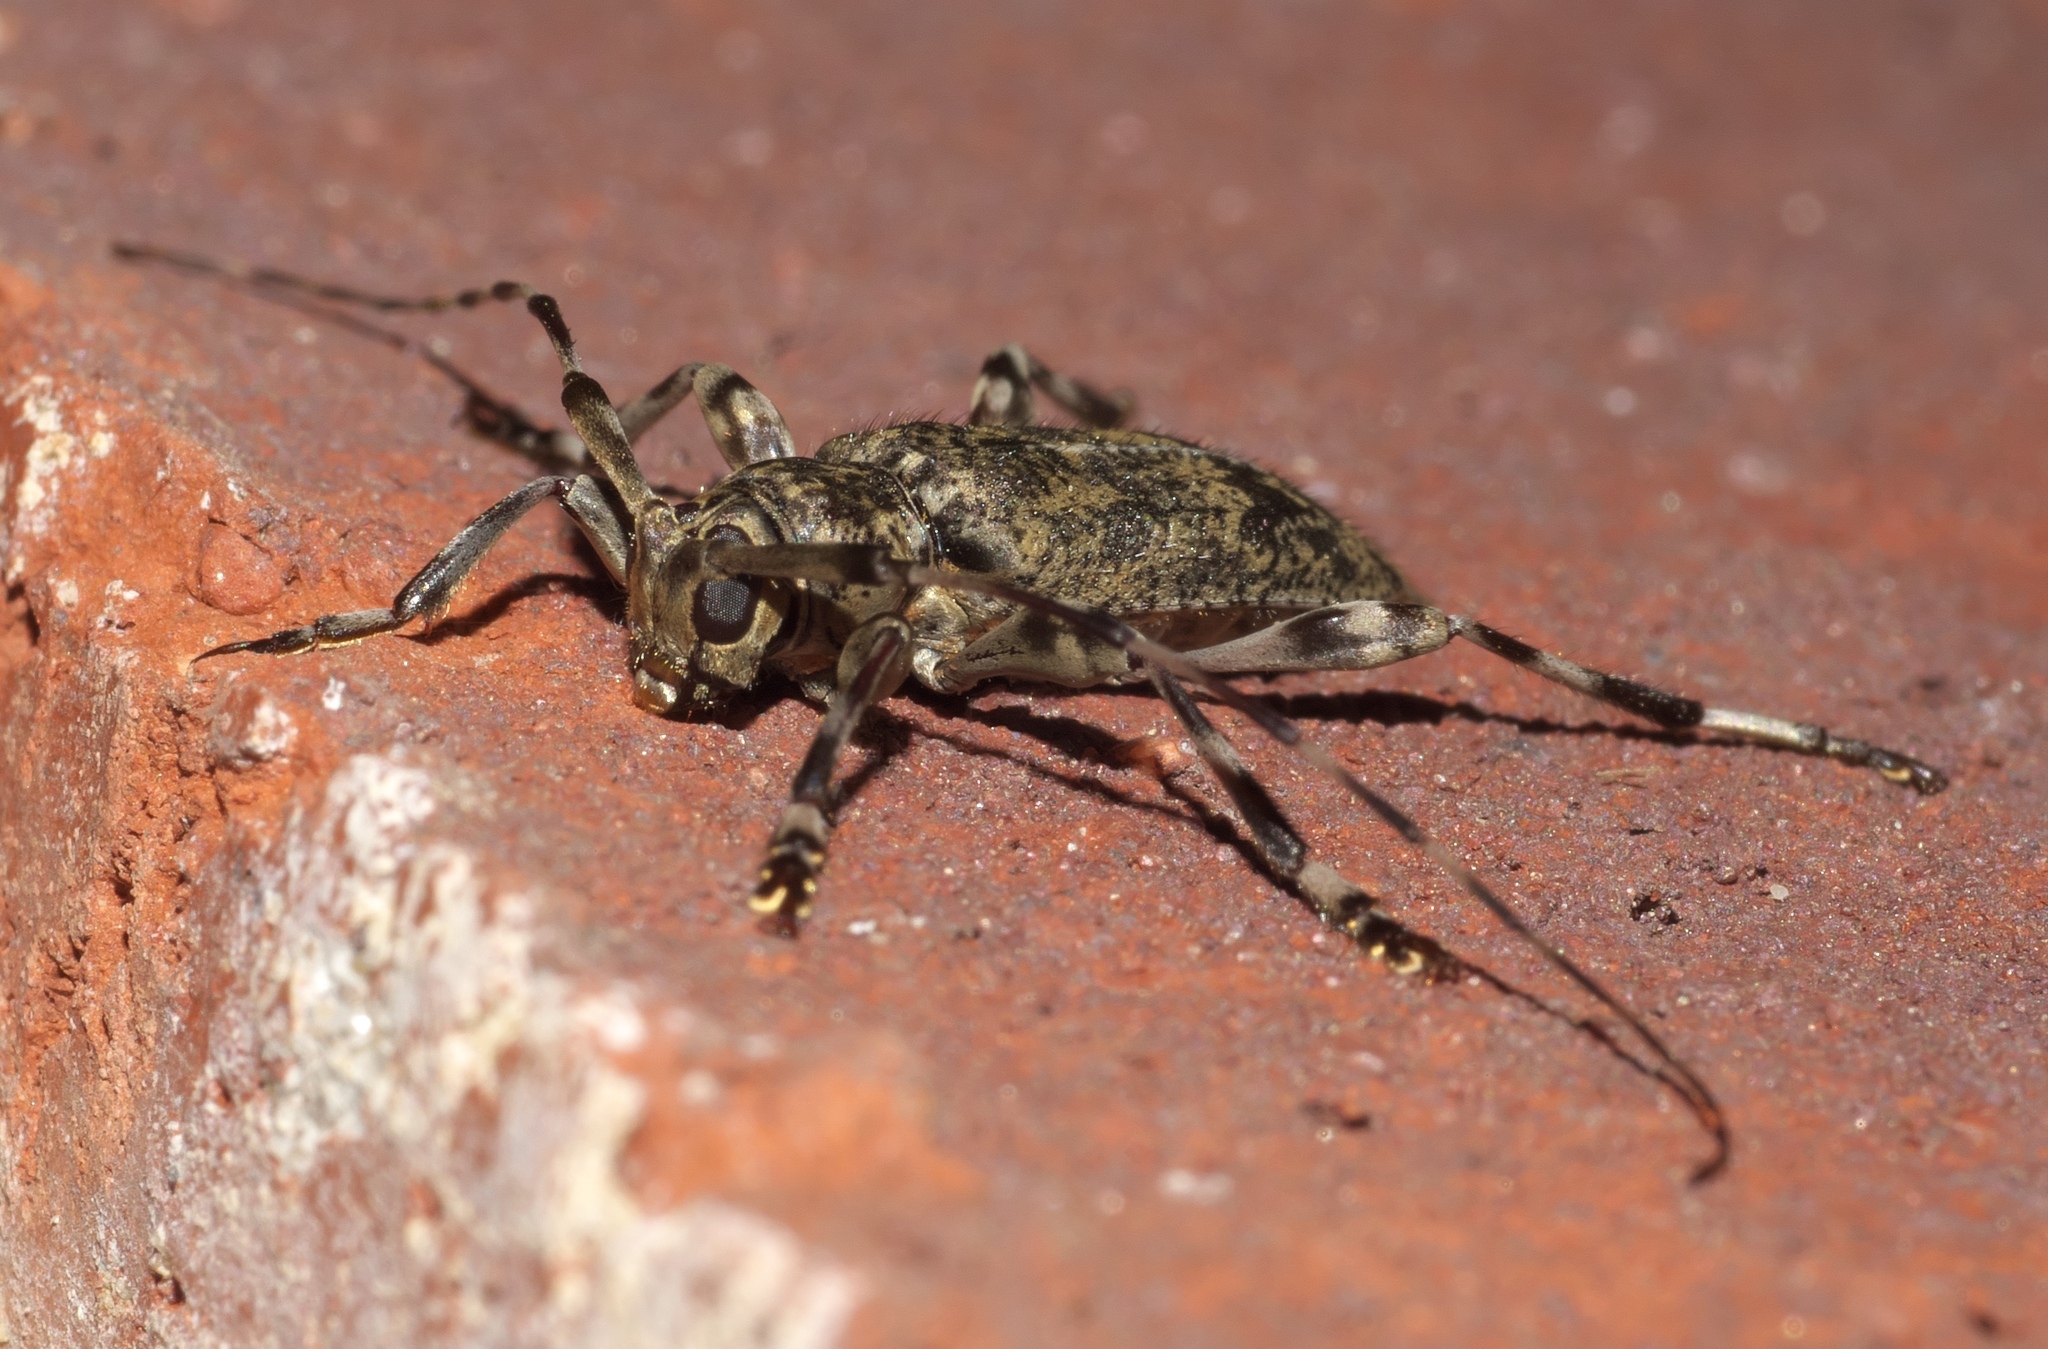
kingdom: Animalia
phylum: Arthropoda
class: Insecta
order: Coleoptera
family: Cerambycidae
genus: Graphisurus
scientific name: Graphisurus fasciatus
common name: Banded graphisurus
